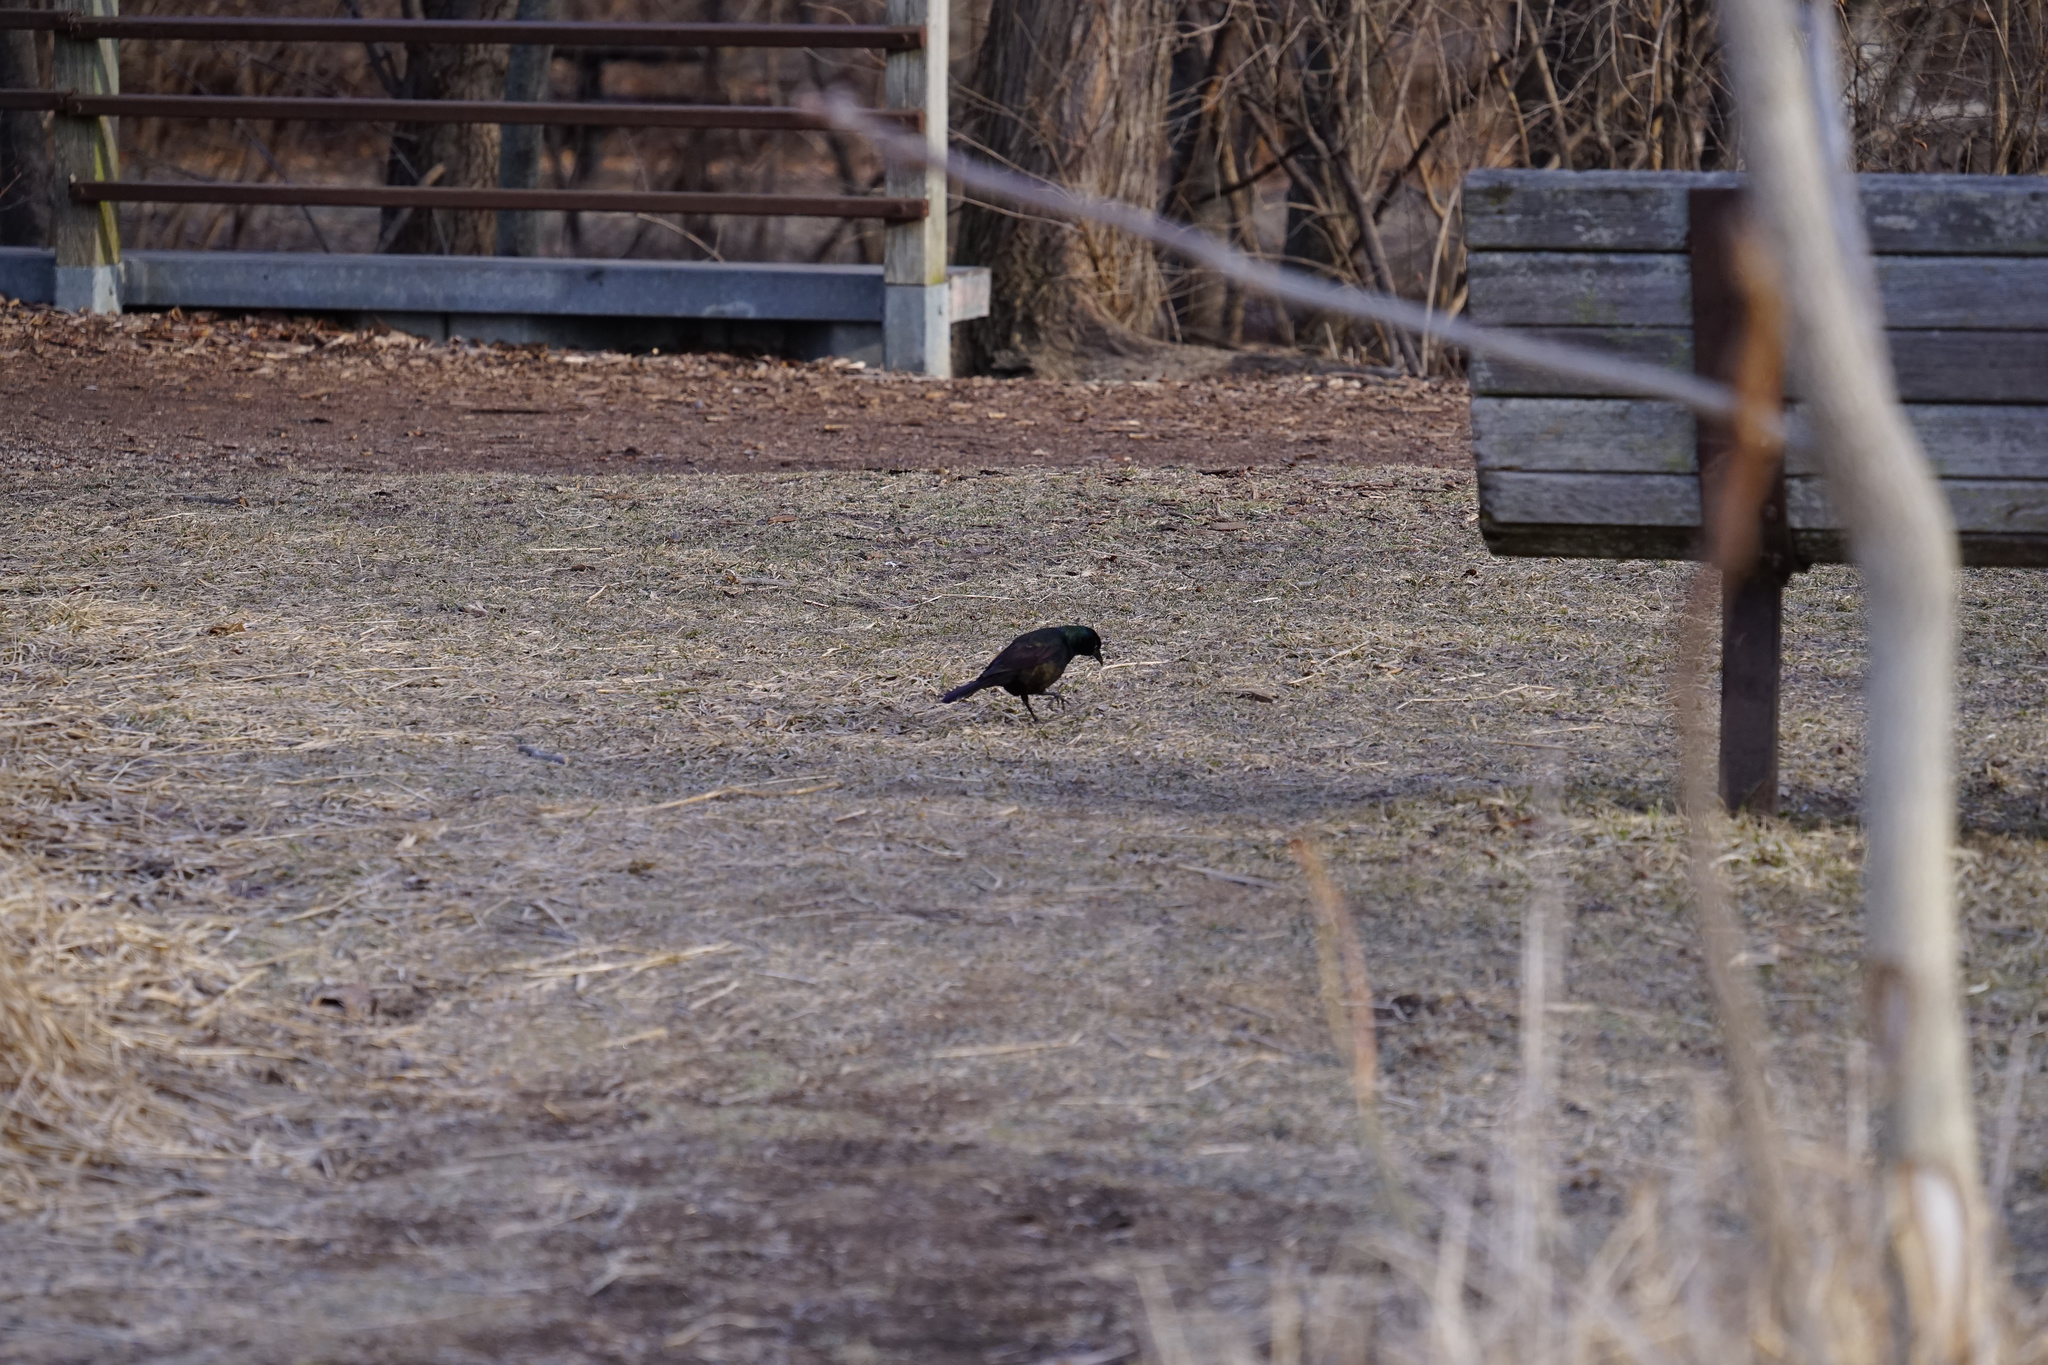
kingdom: Animalia
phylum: Chordata
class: Aves
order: Passeriformes
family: Icteridae
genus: Quiscalus
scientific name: Quiscalus quiscula
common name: Common grackle
